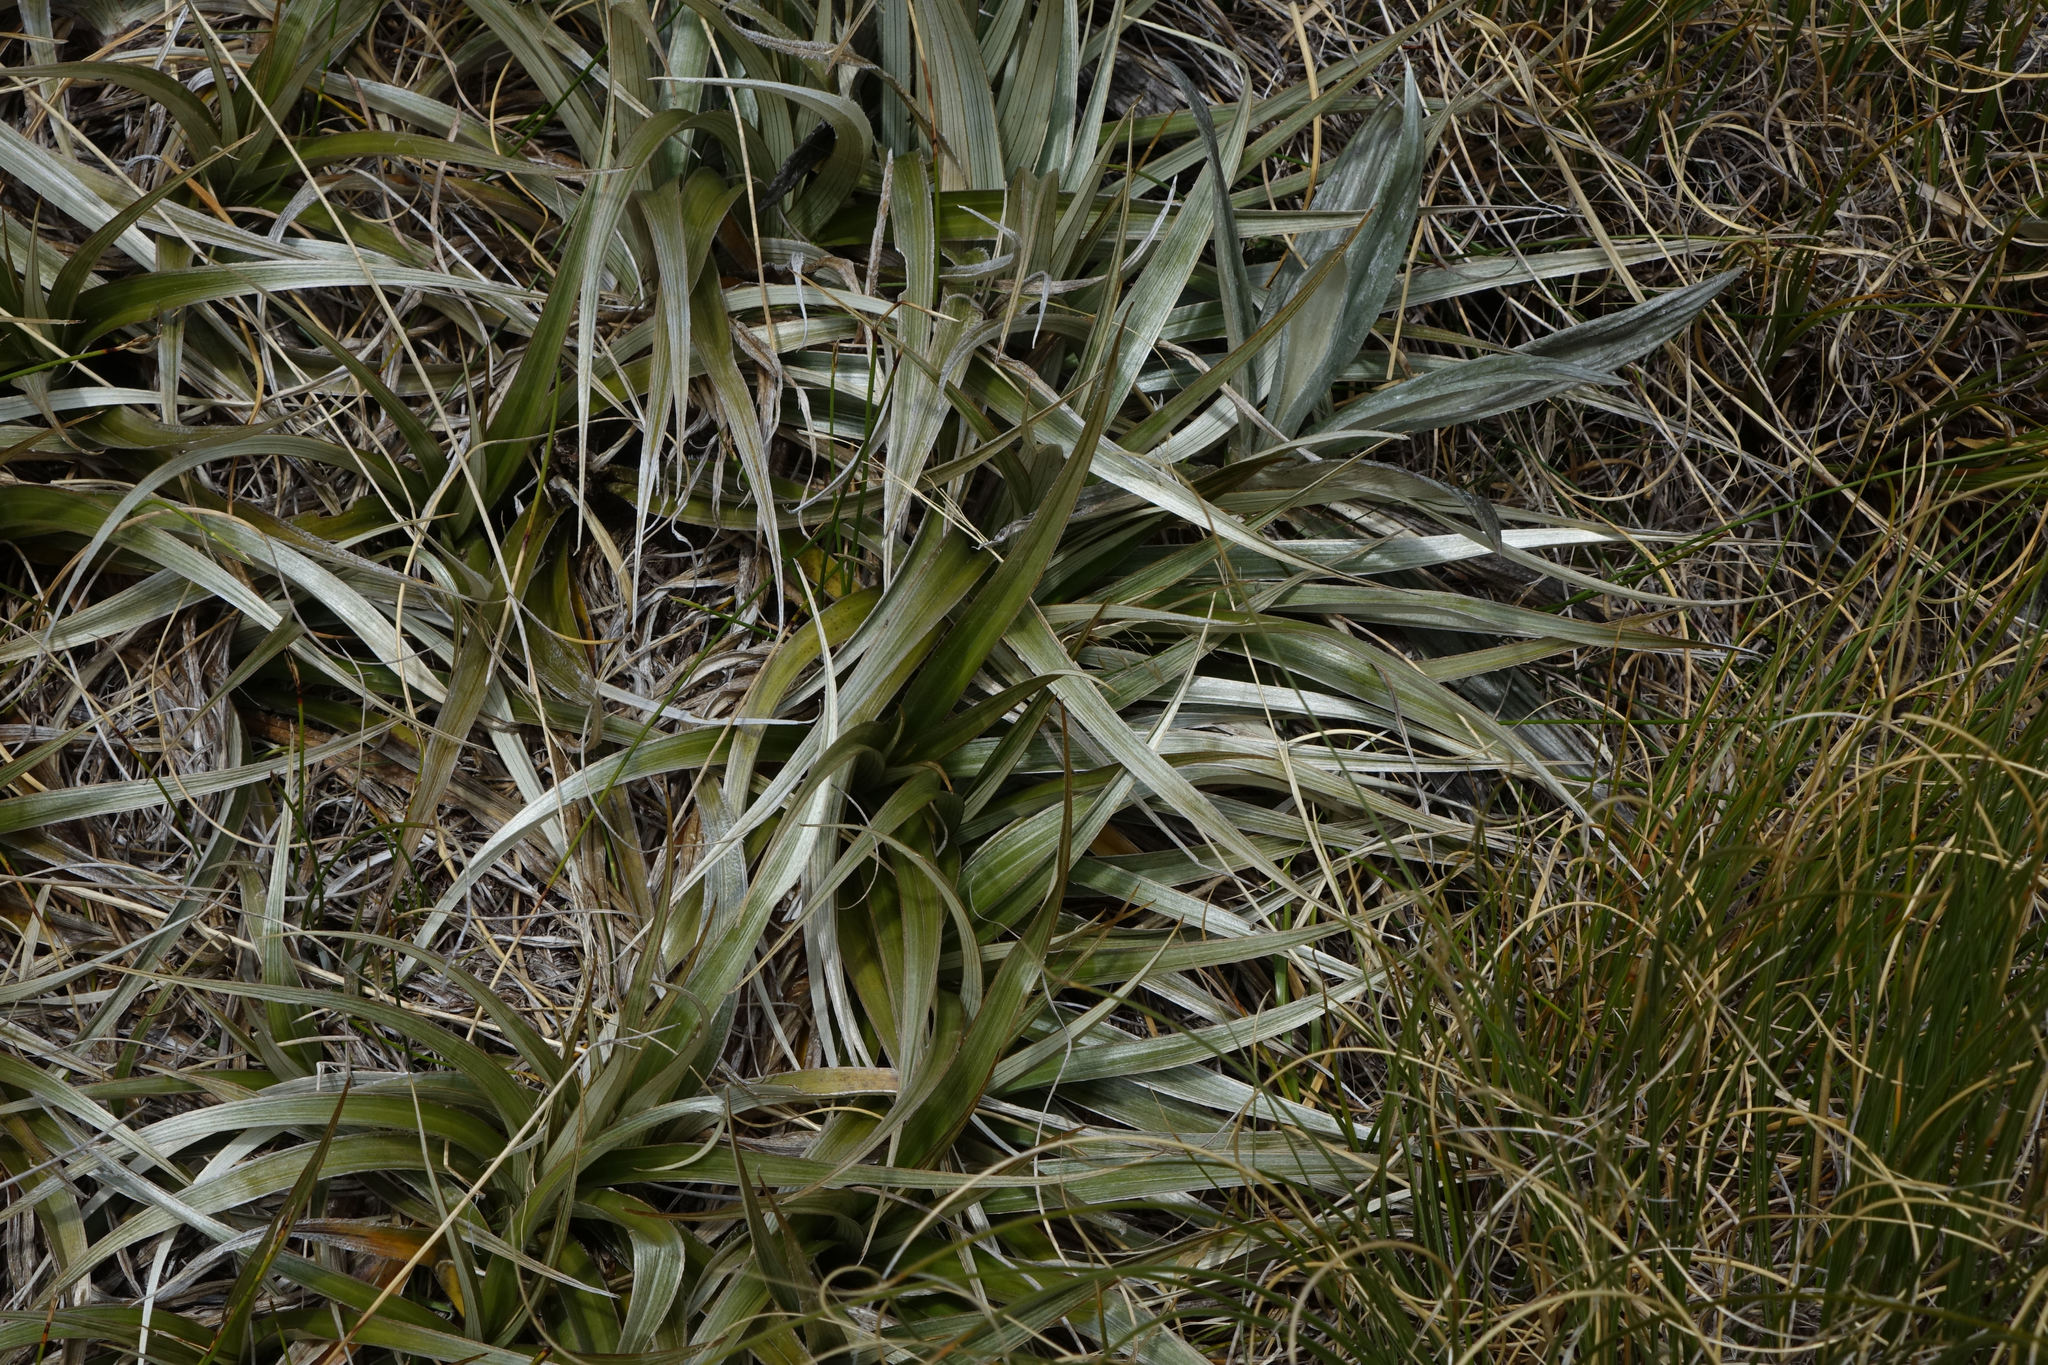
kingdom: Plantae
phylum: Tracheophyta
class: Liliopsida
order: Asparagales
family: Asteliaceae
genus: Astelia
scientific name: Astelia nivicola
